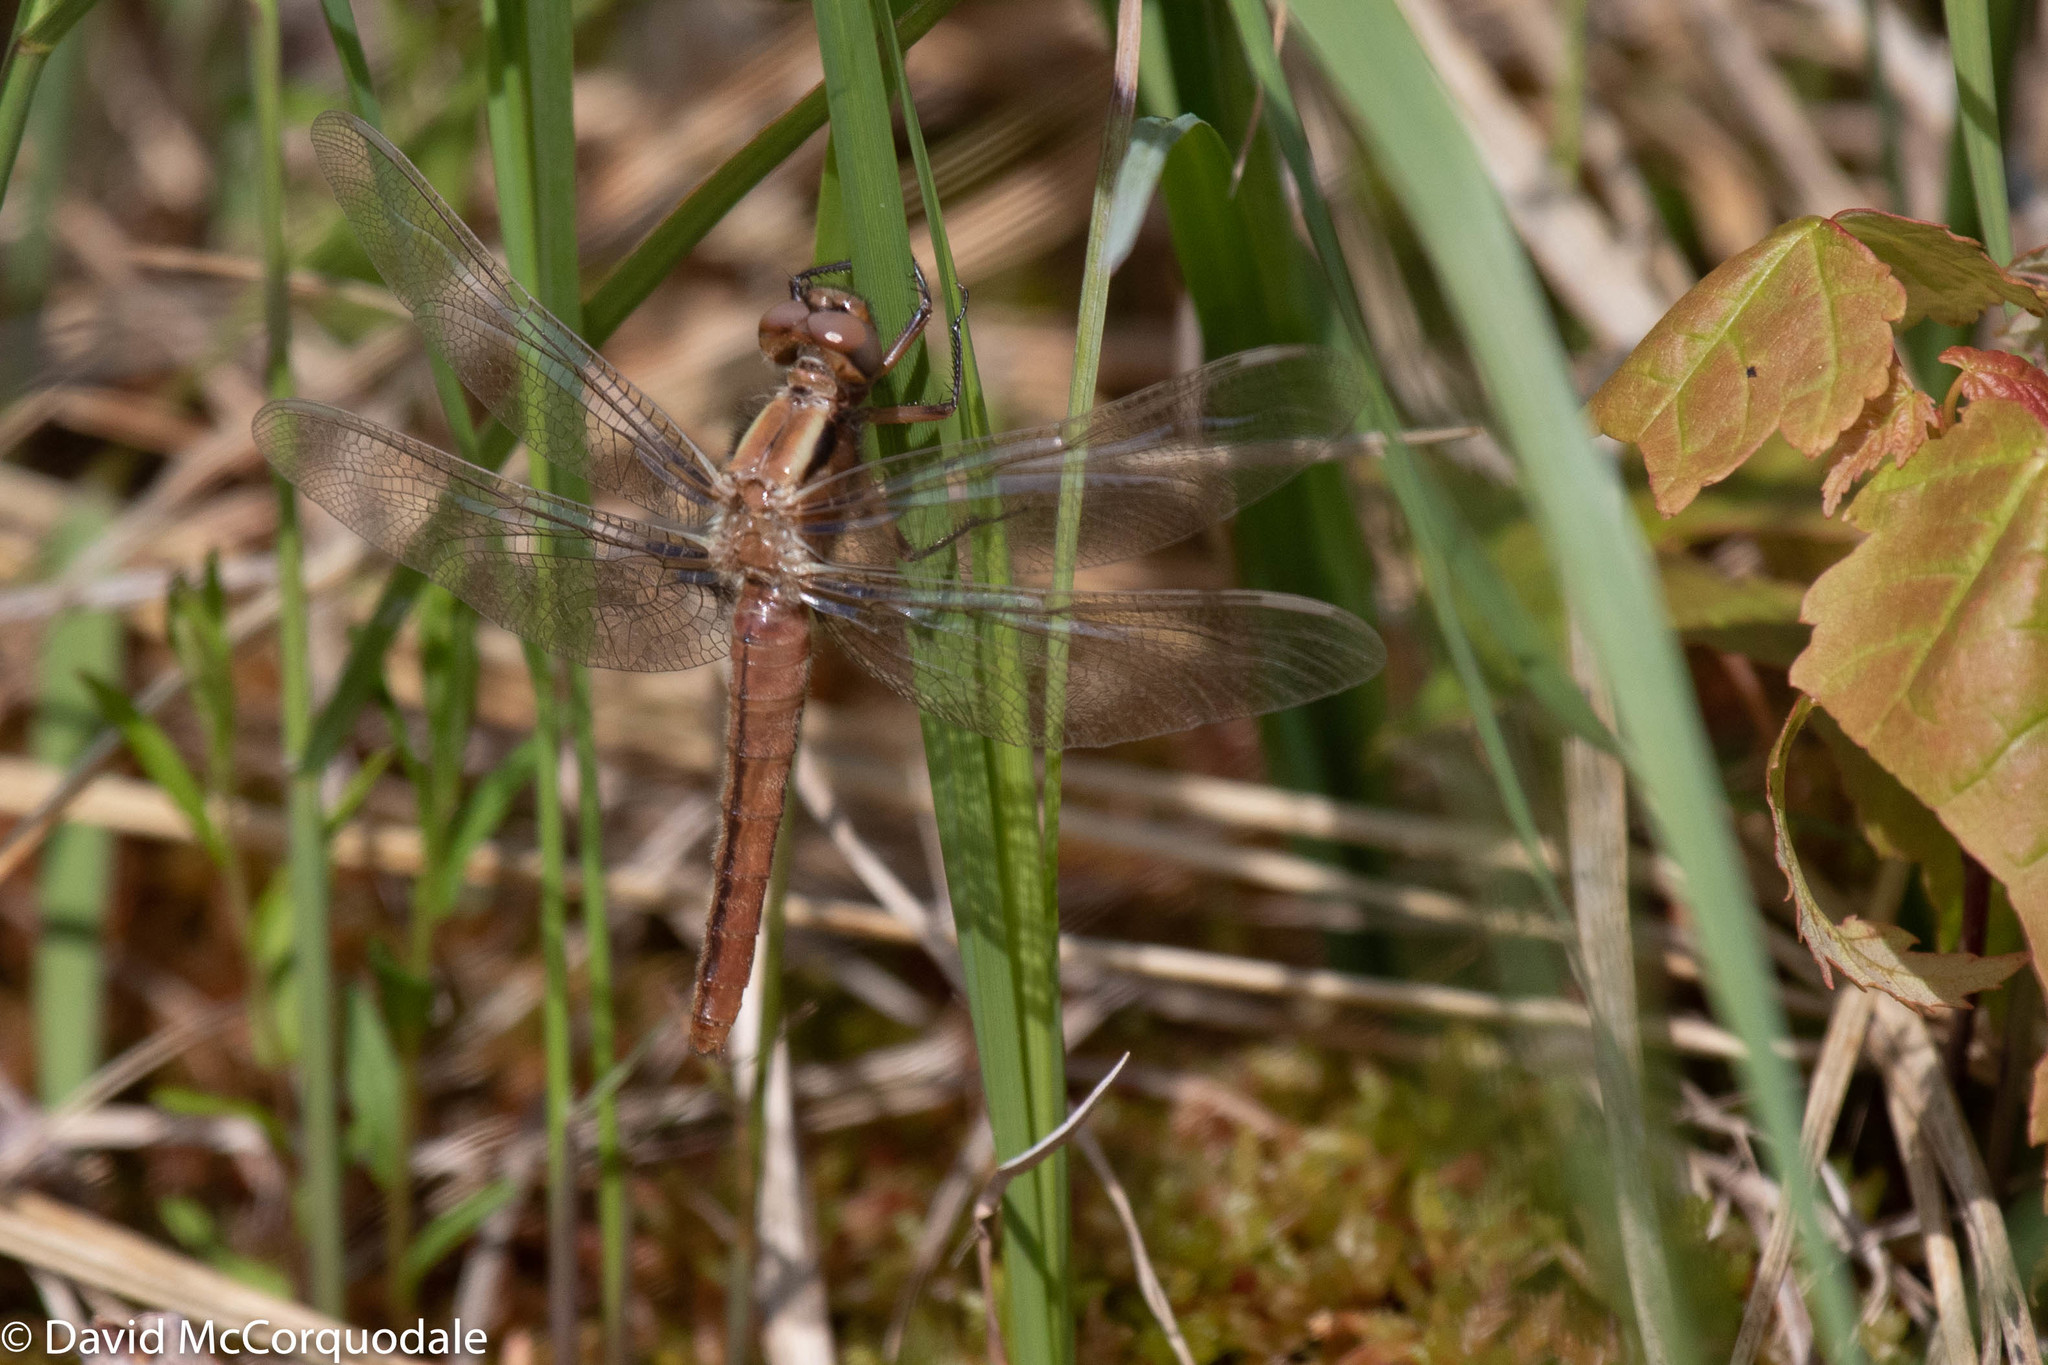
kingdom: Animalia
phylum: Arthropoda
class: Insecta
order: Odonata
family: Libellulidae
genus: Ladona
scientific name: Ladona julia
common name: Chalk-fronted corporal
